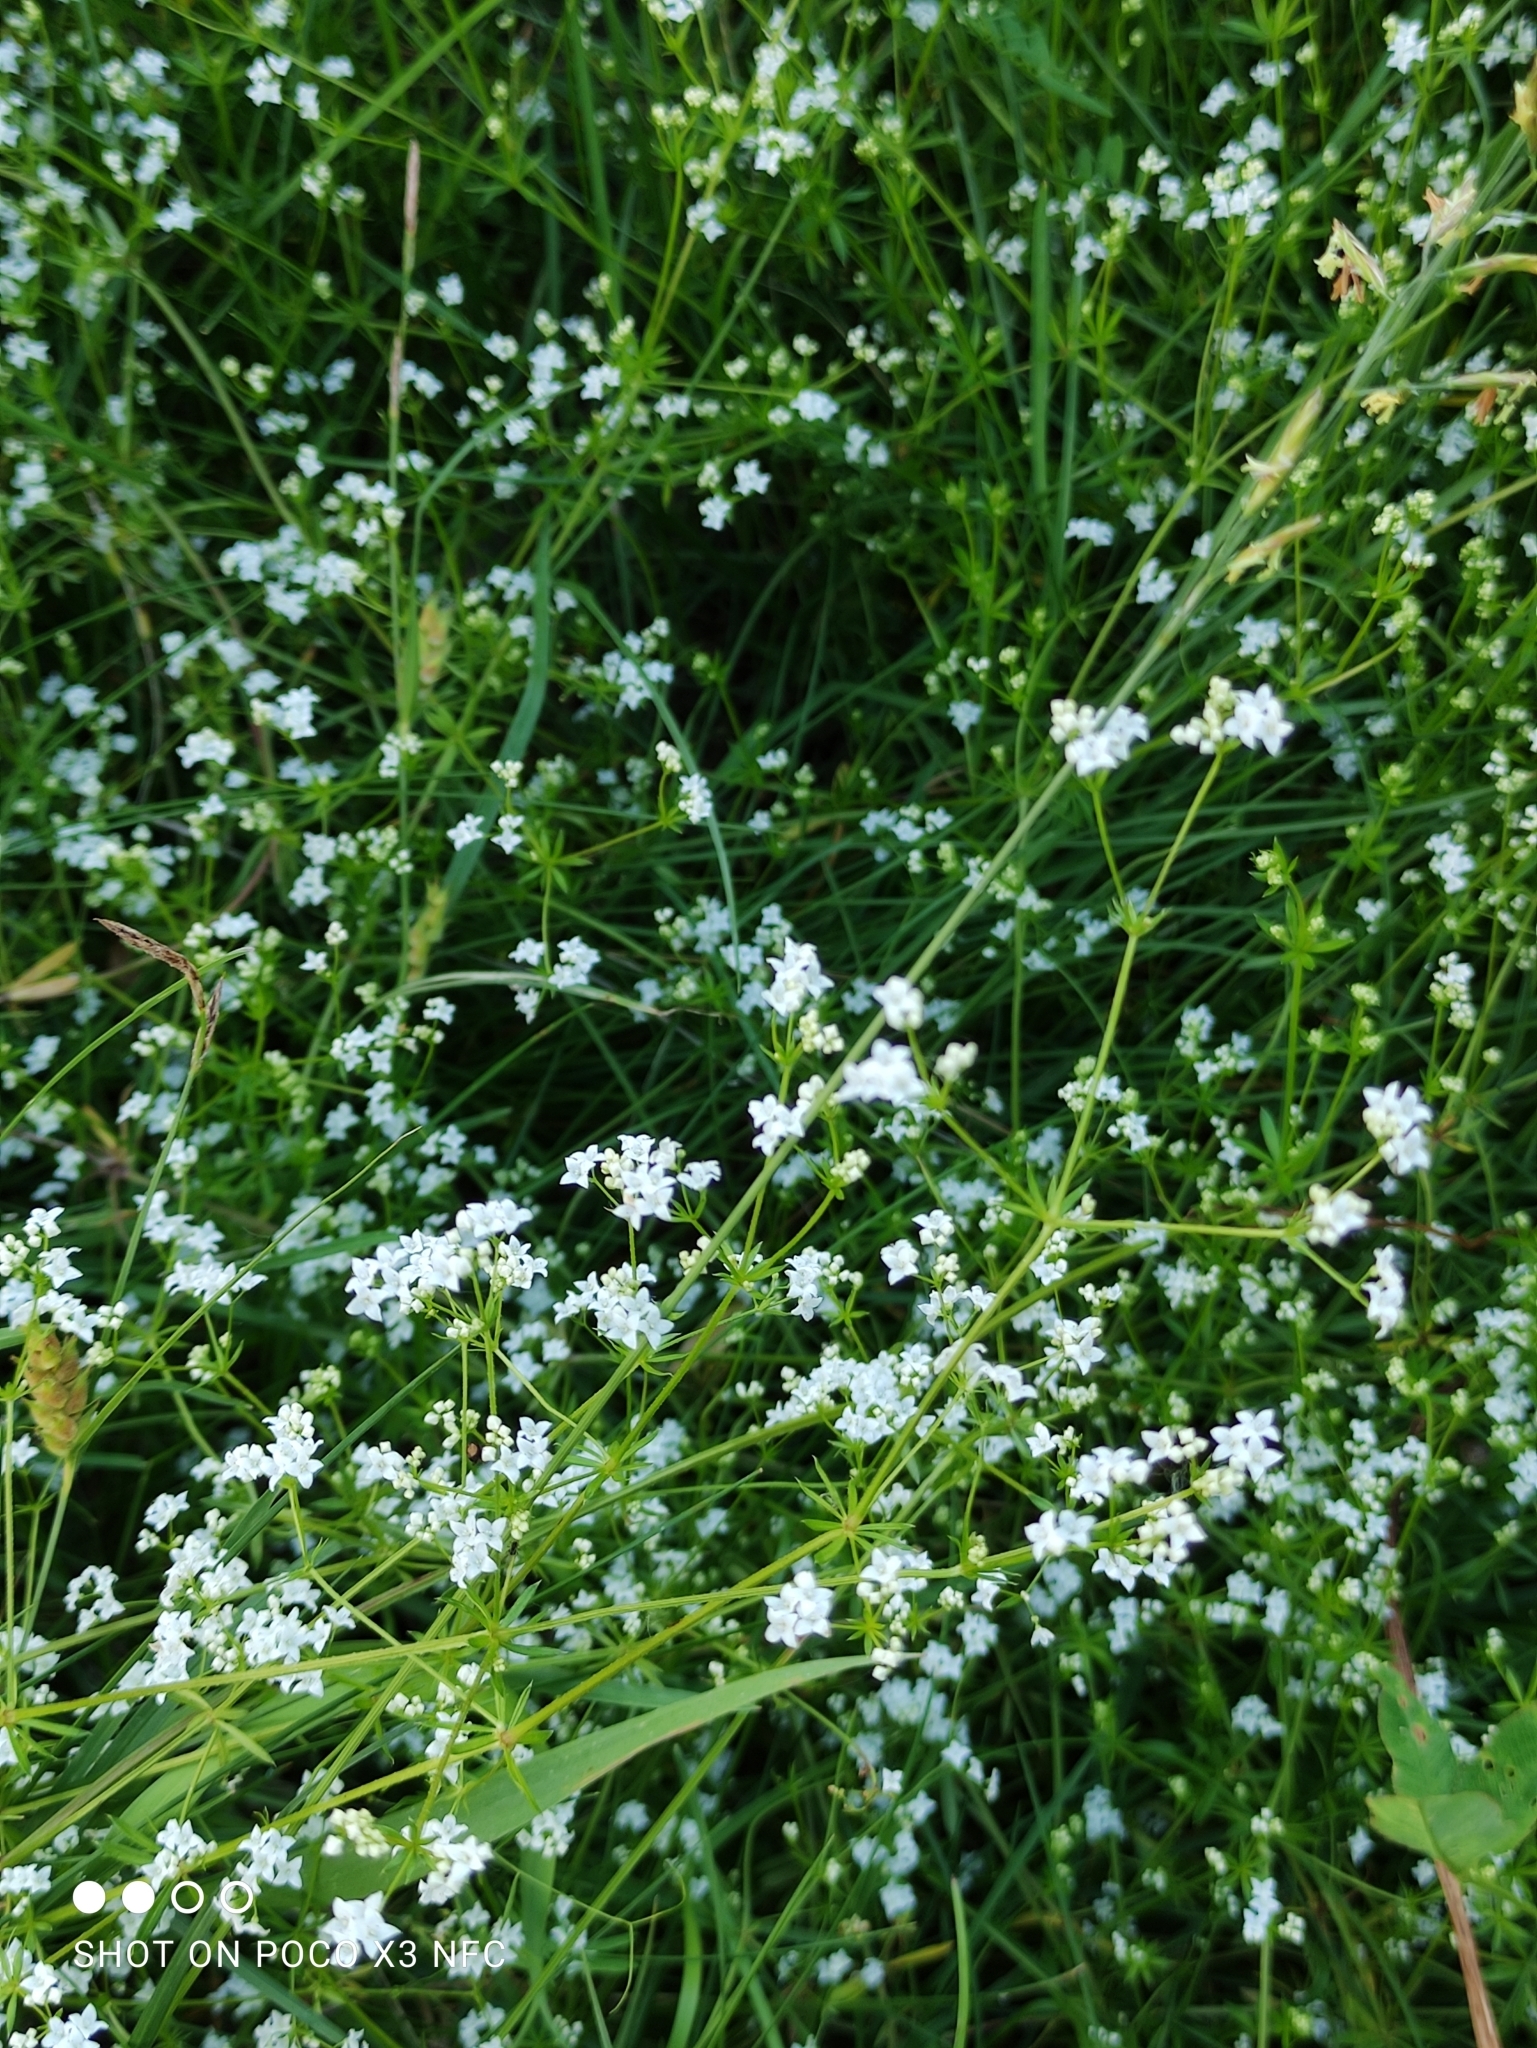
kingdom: Plantae
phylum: Tracheophyta
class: Magnoliopsida
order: Gentianales
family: Rubiaceae
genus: Galium
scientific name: Galium rivale
